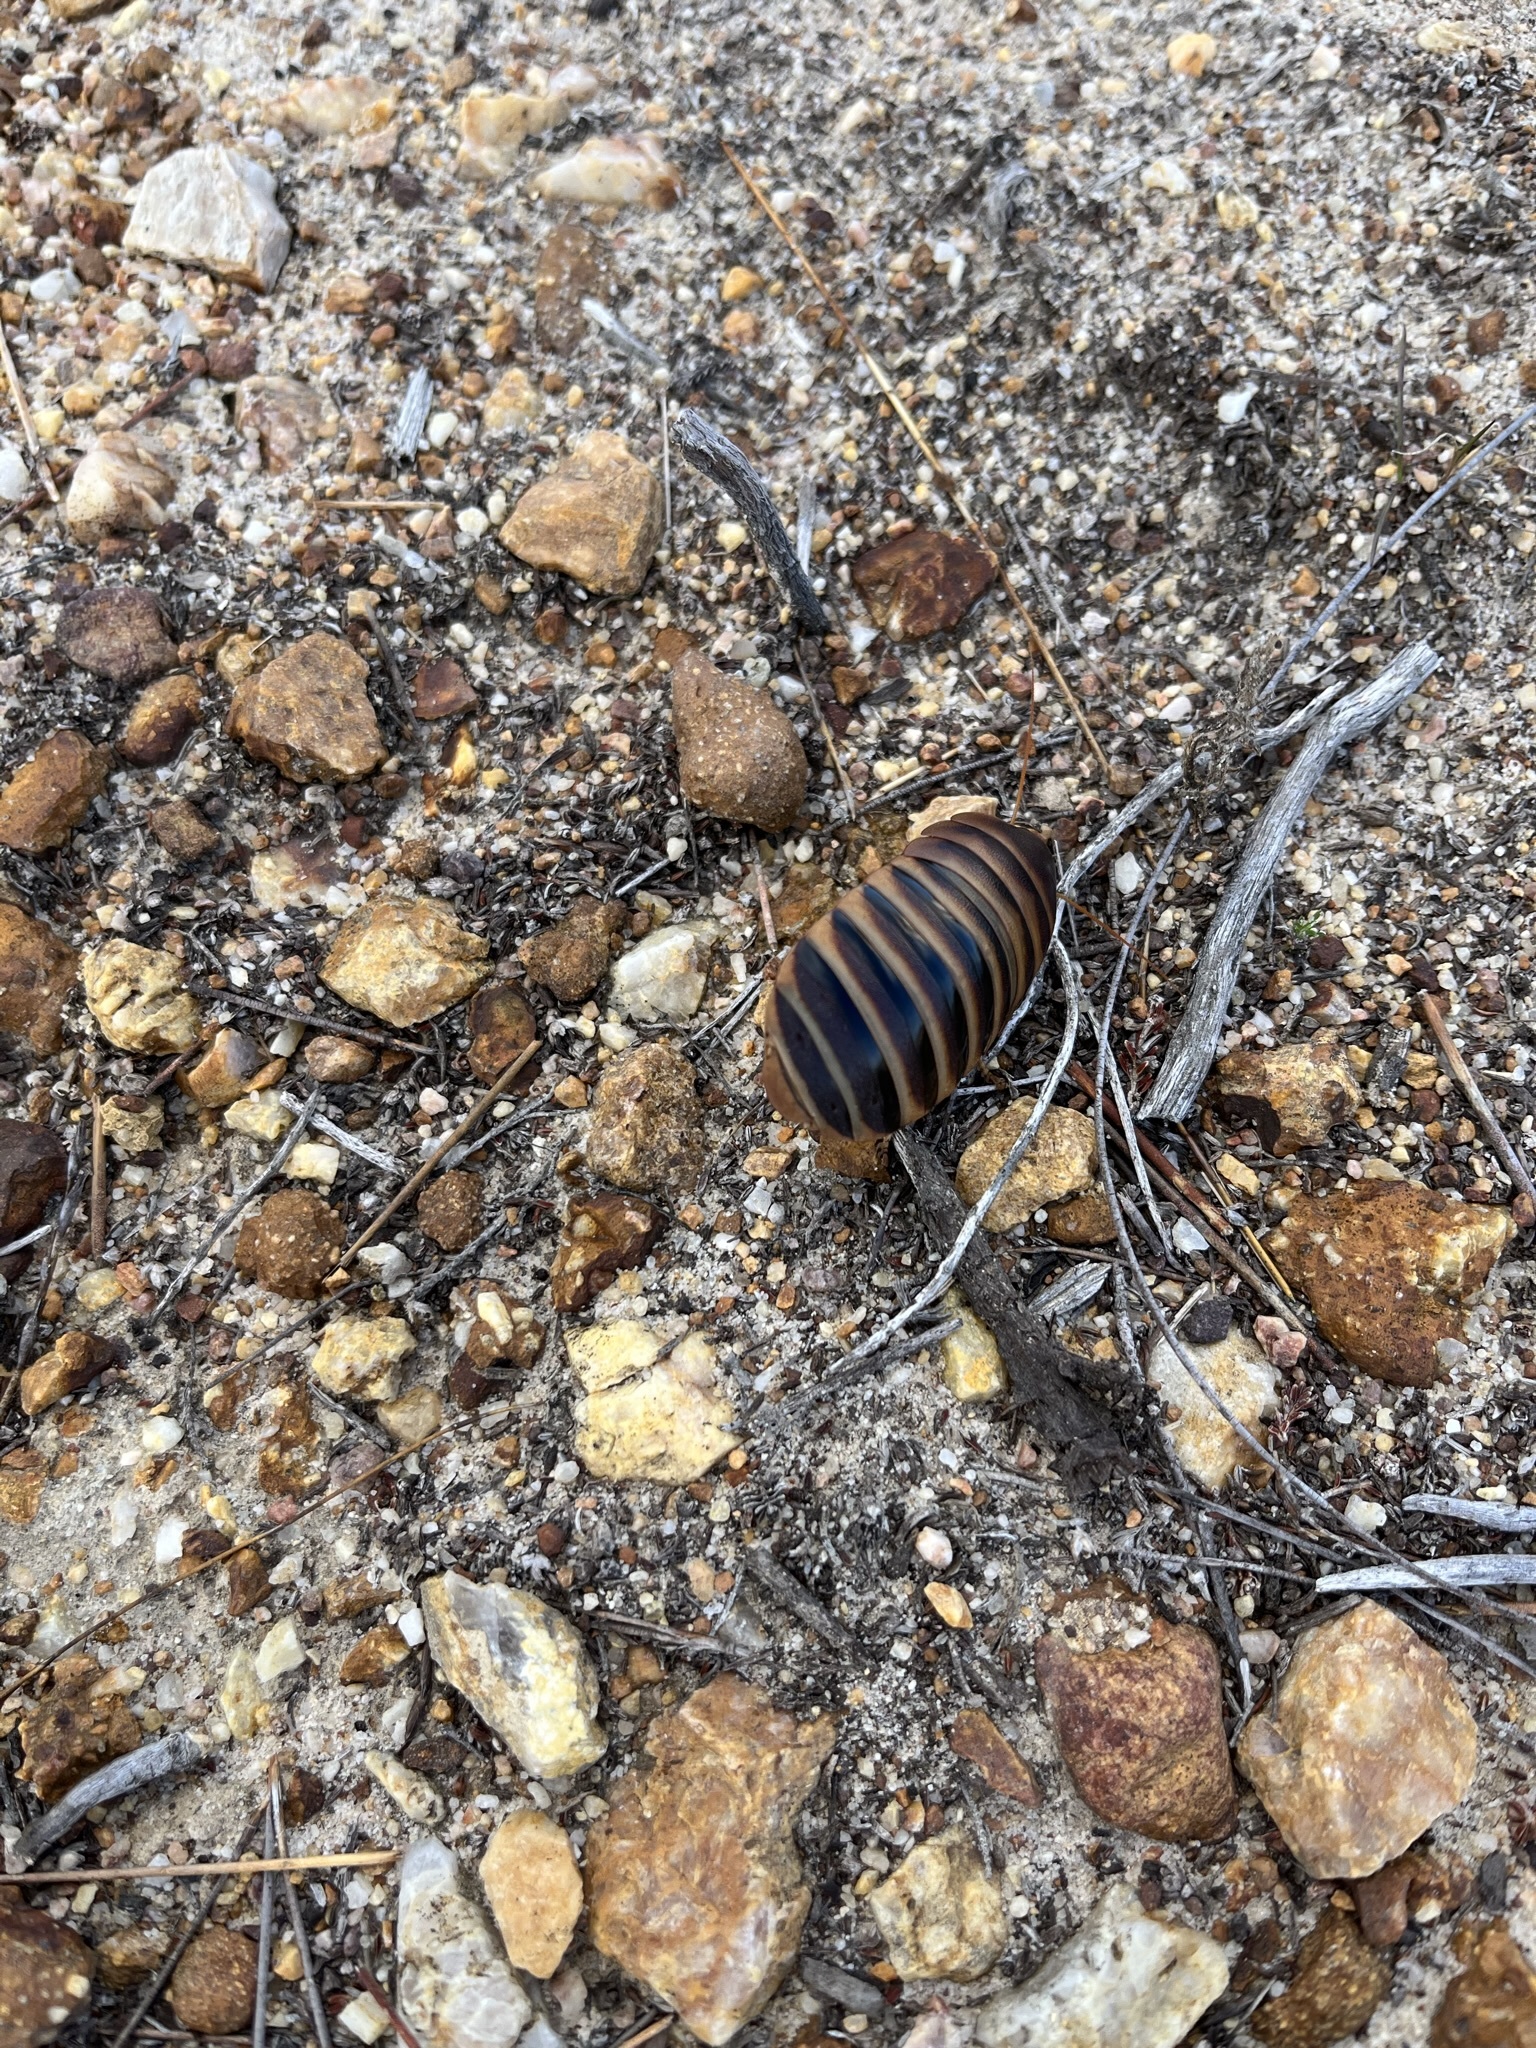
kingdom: Animalia
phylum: Arthropoda
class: Insecta
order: Blattodea
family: Blaberidae
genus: Aptera
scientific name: Aptera fusca
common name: Cape mountain cockroach
